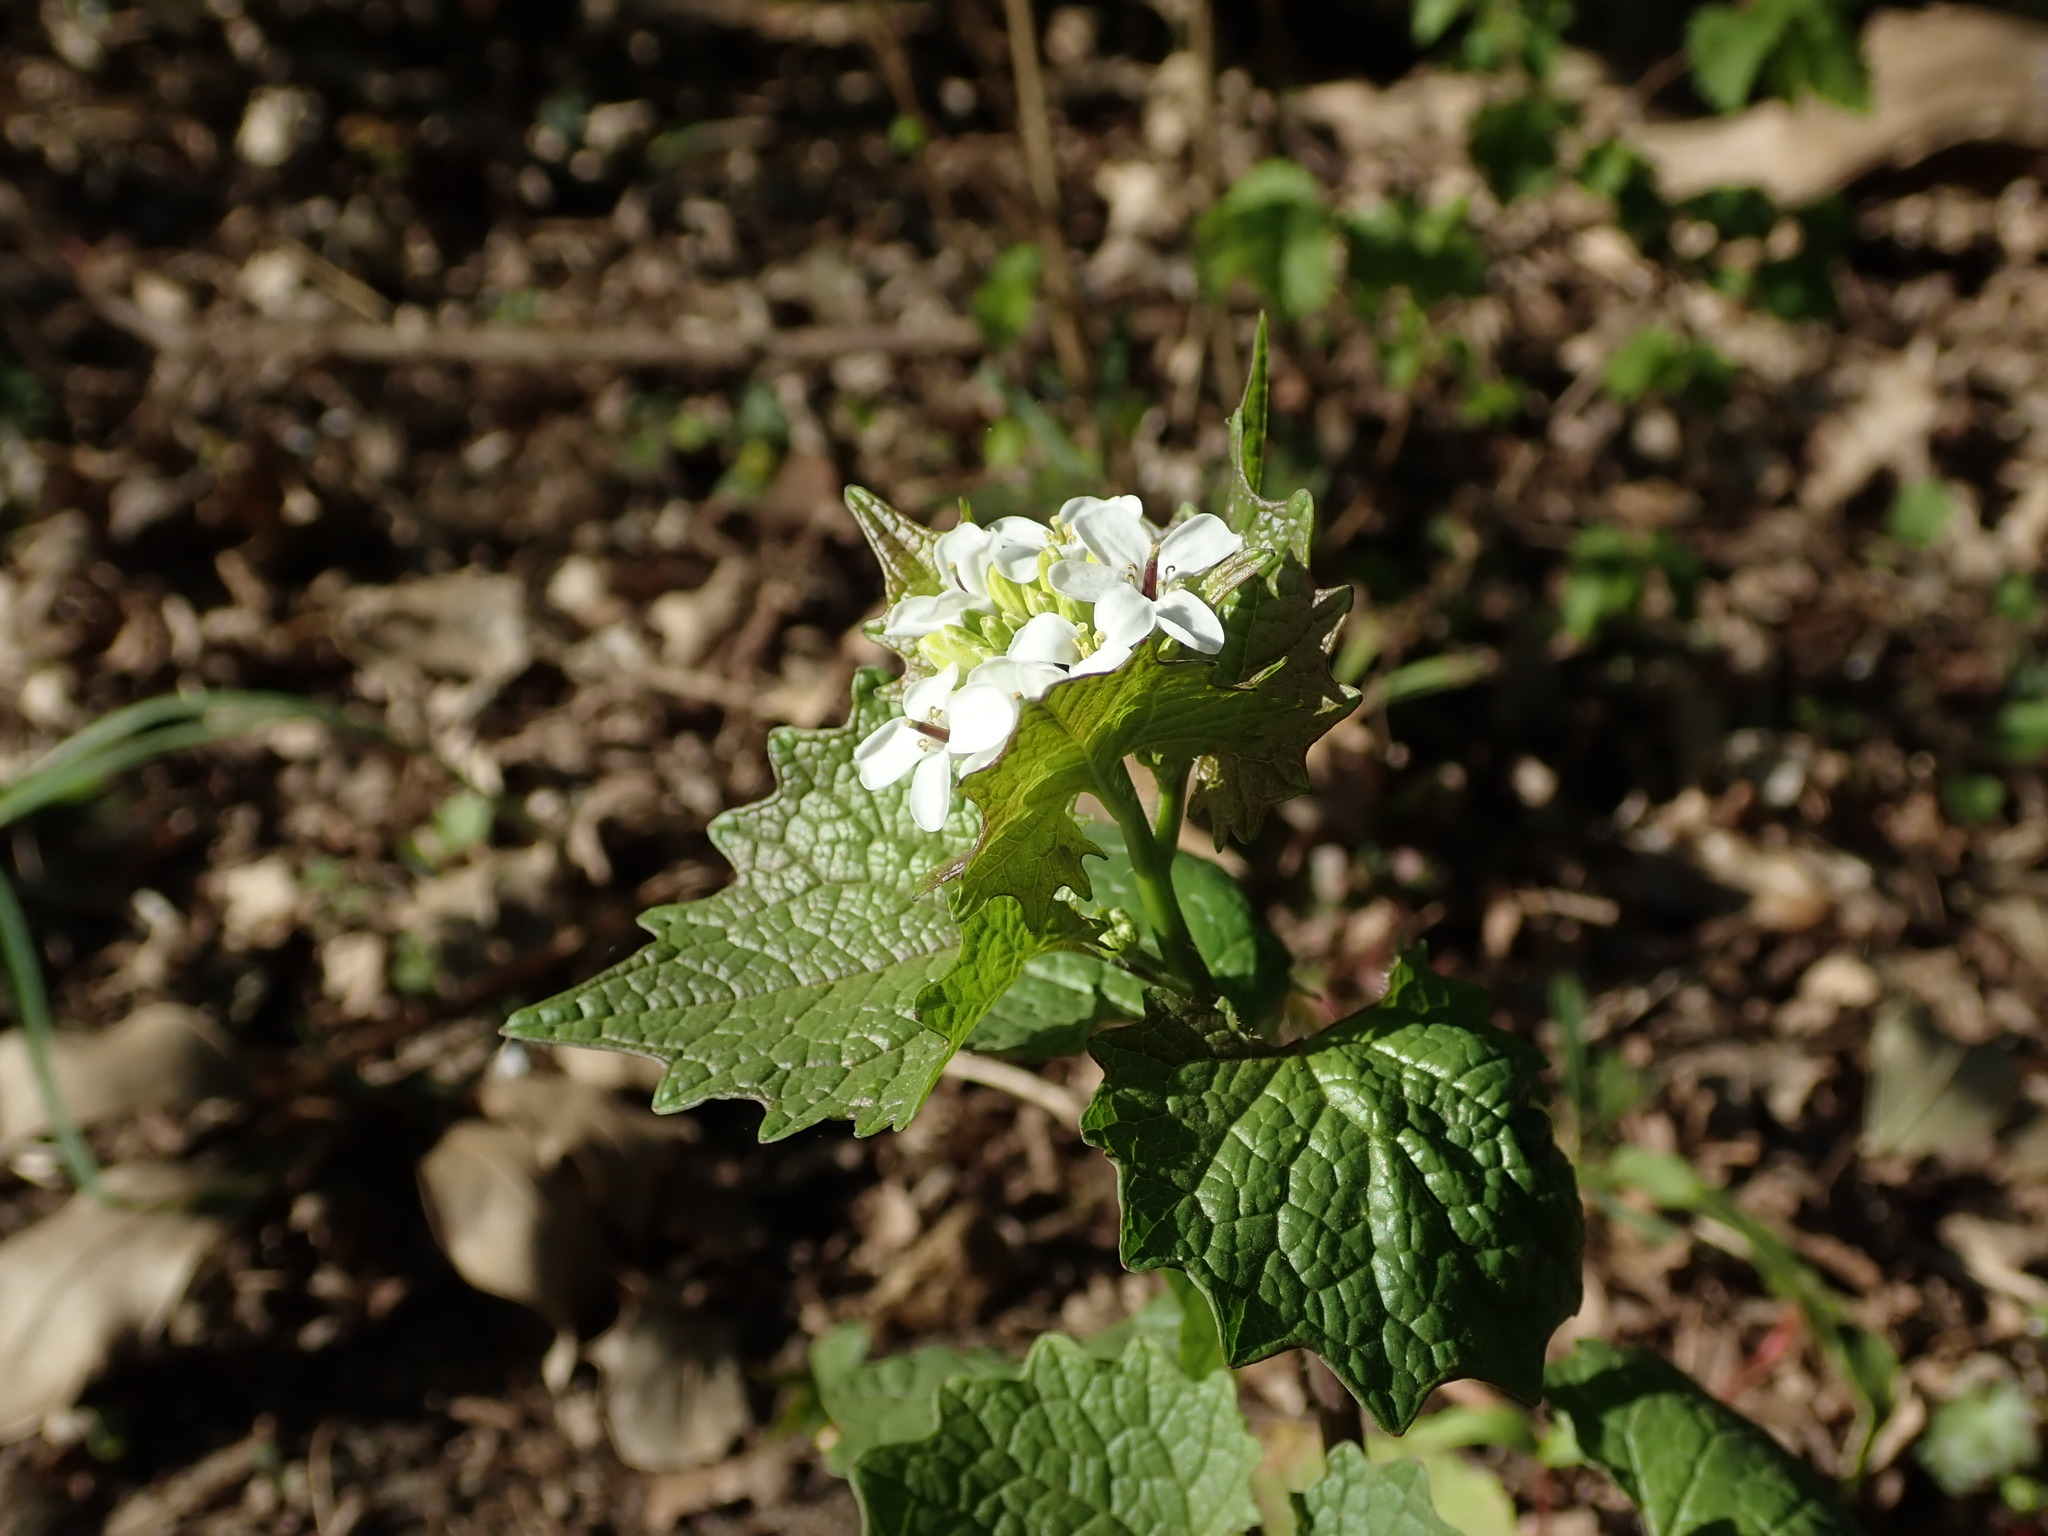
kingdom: Plantae
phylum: Tracheophyta
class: Magnoliopsida
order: Brassicales
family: Brassicaceae
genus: Alliaria
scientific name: Alliaria petiolata
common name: Garlic mustard
